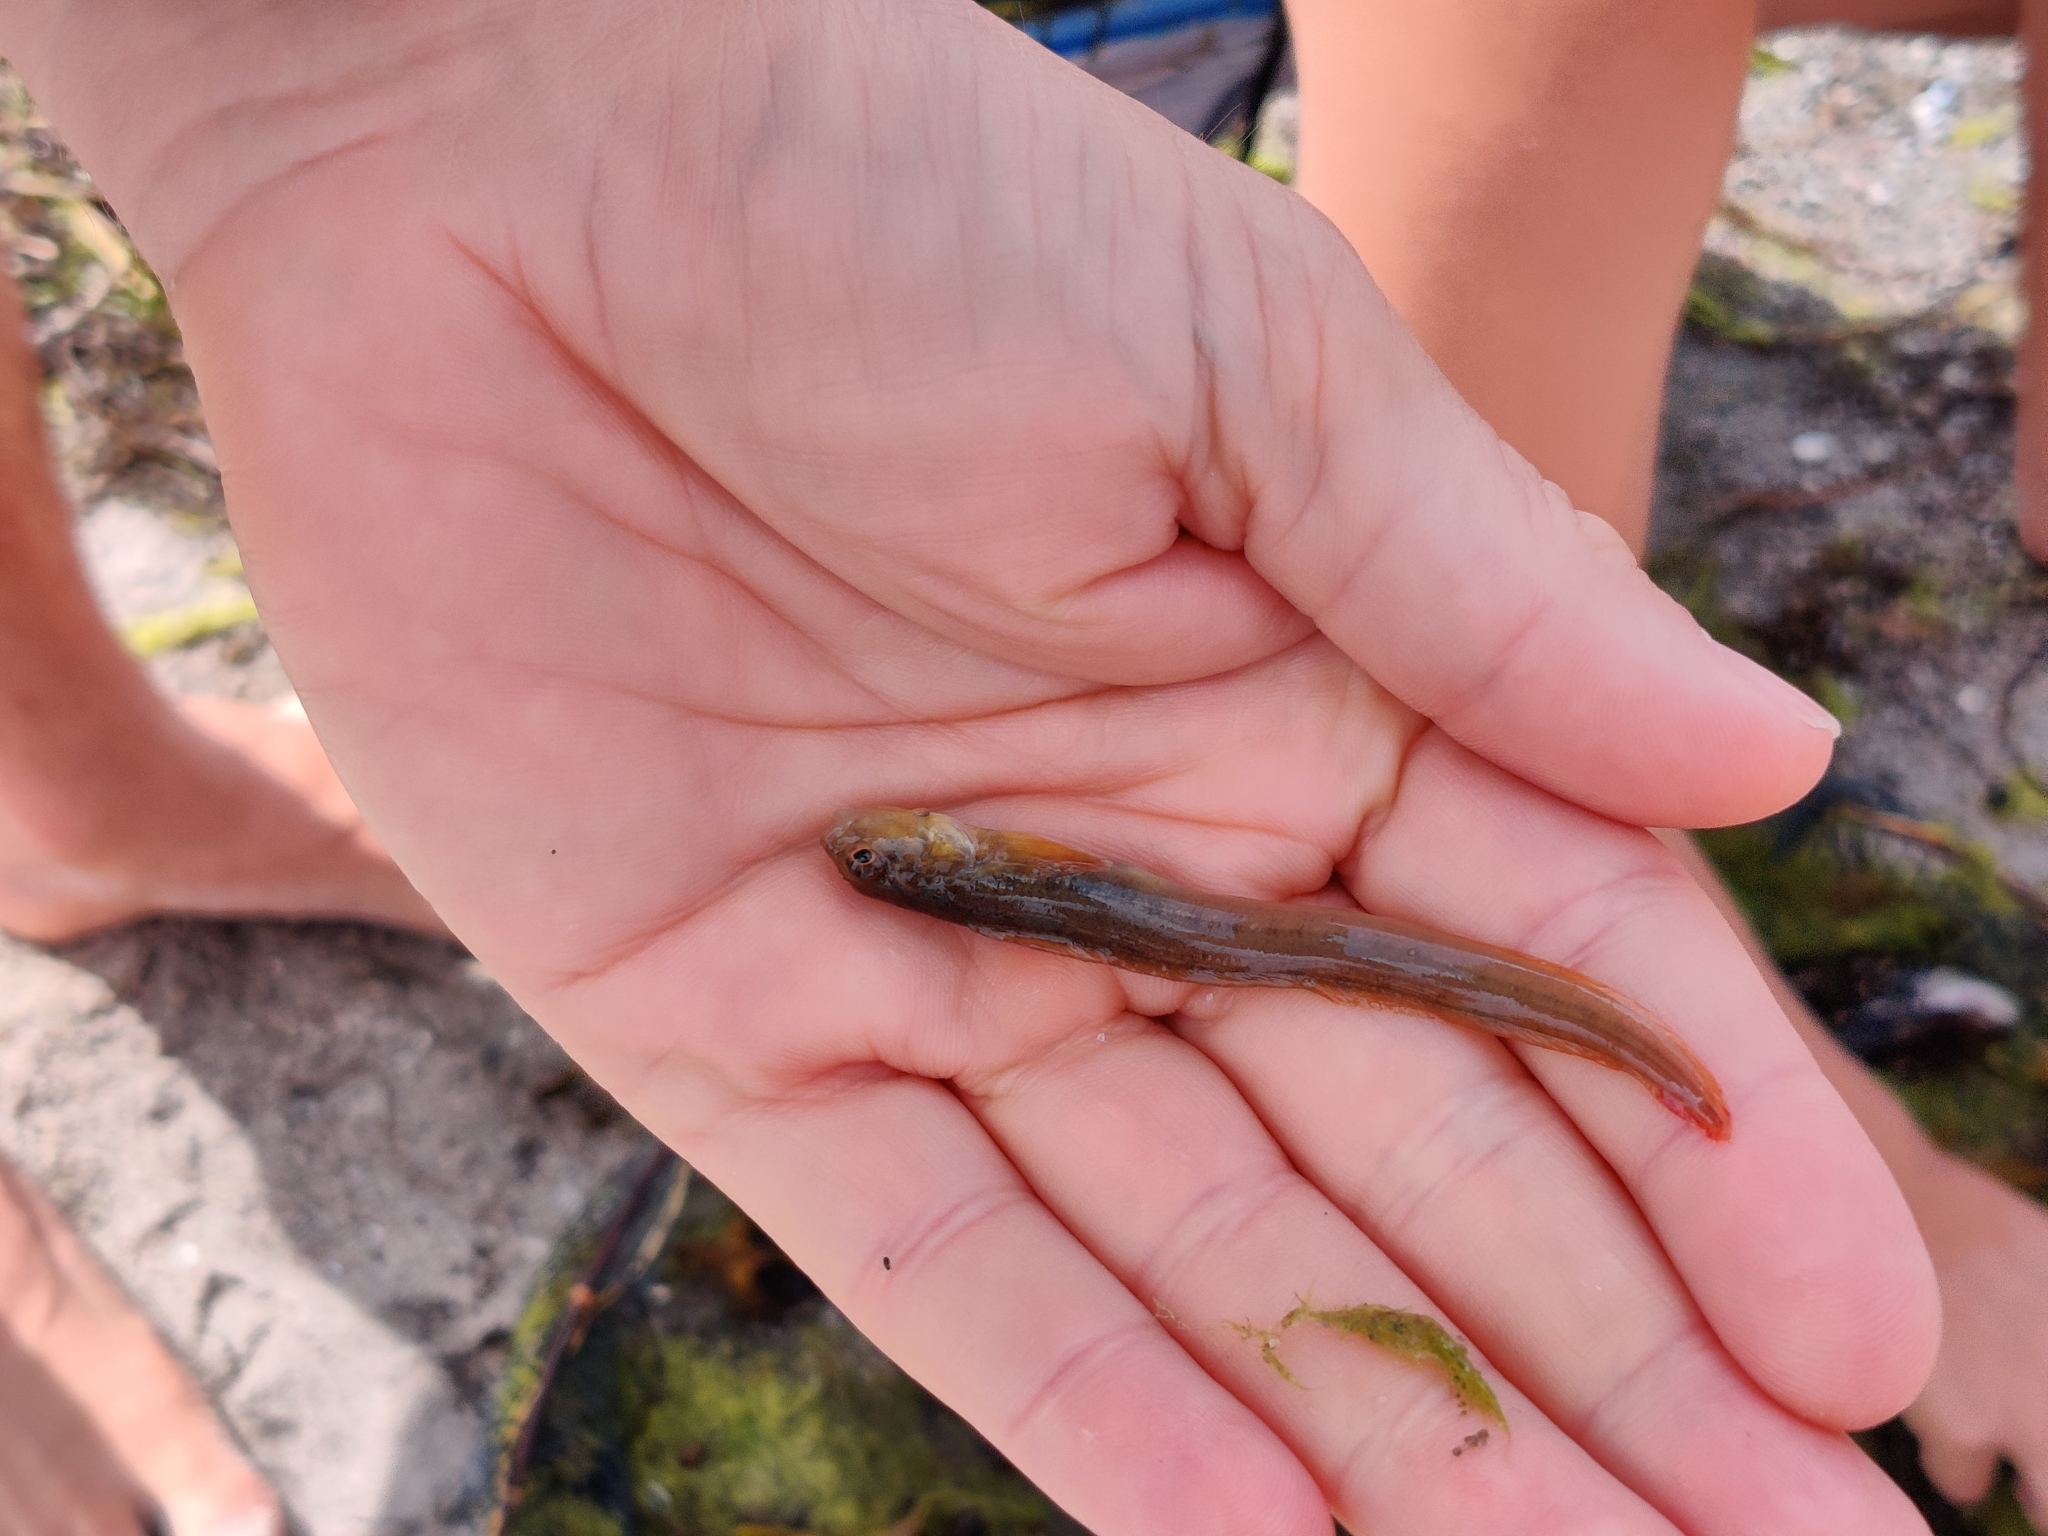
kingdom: Animalia
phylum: Chordata
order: Perciformes
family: Zoarcidae
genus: Zoarces
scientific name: Zoarces viviparus
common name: Viviparous blenny
